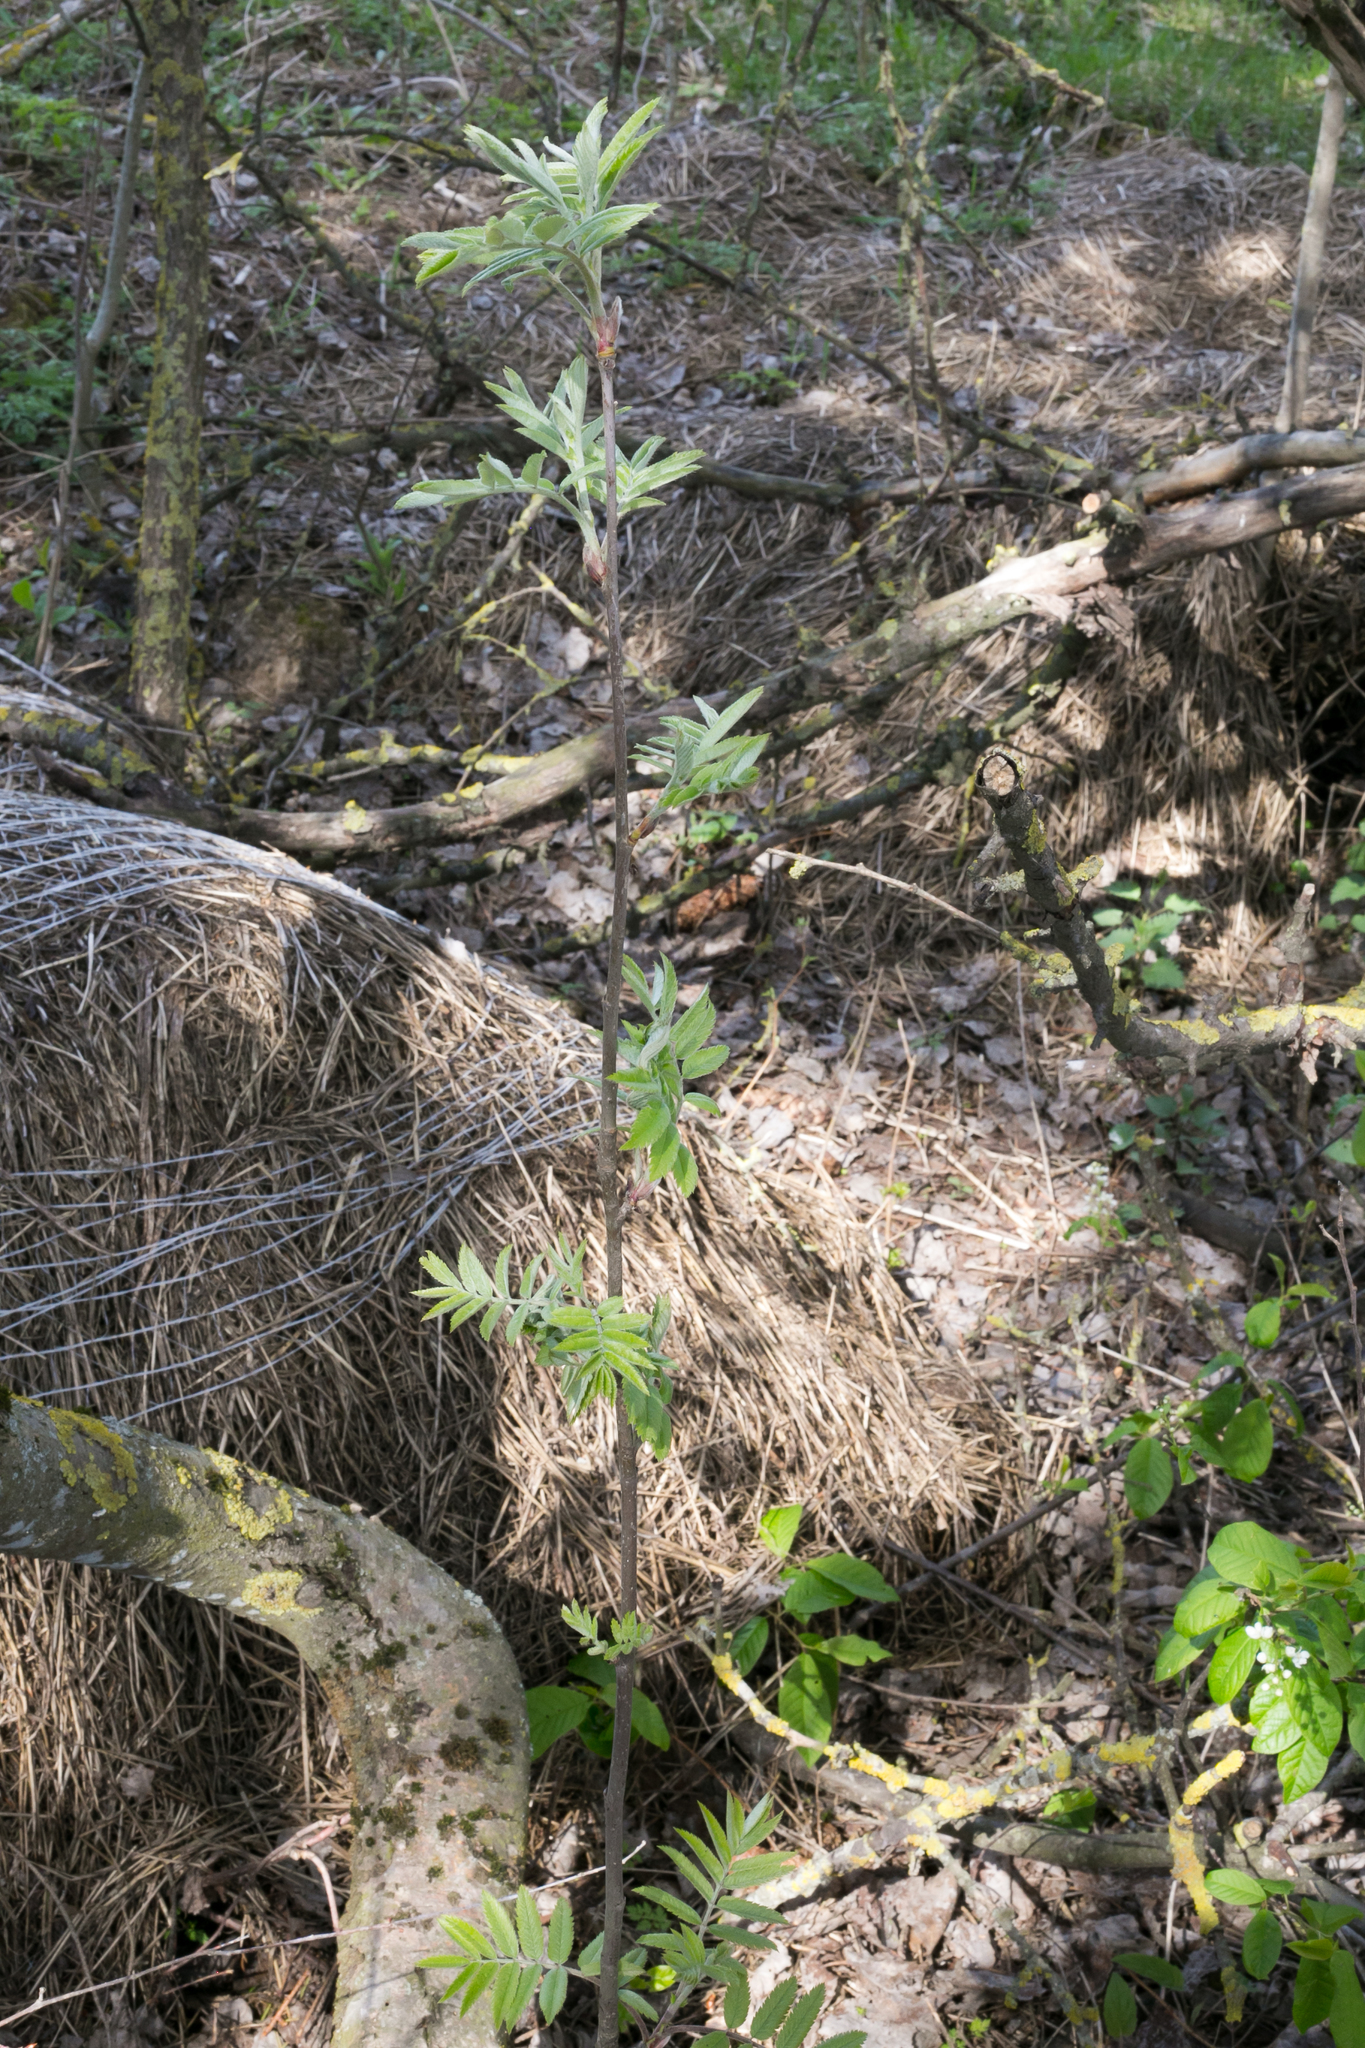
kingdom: Plantae
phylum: Tracheophyta
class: Magnoliopsida
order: Rosales
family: Rosaceae
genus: Sorbus
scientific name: Sorbus aucuparia
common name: Rowan
